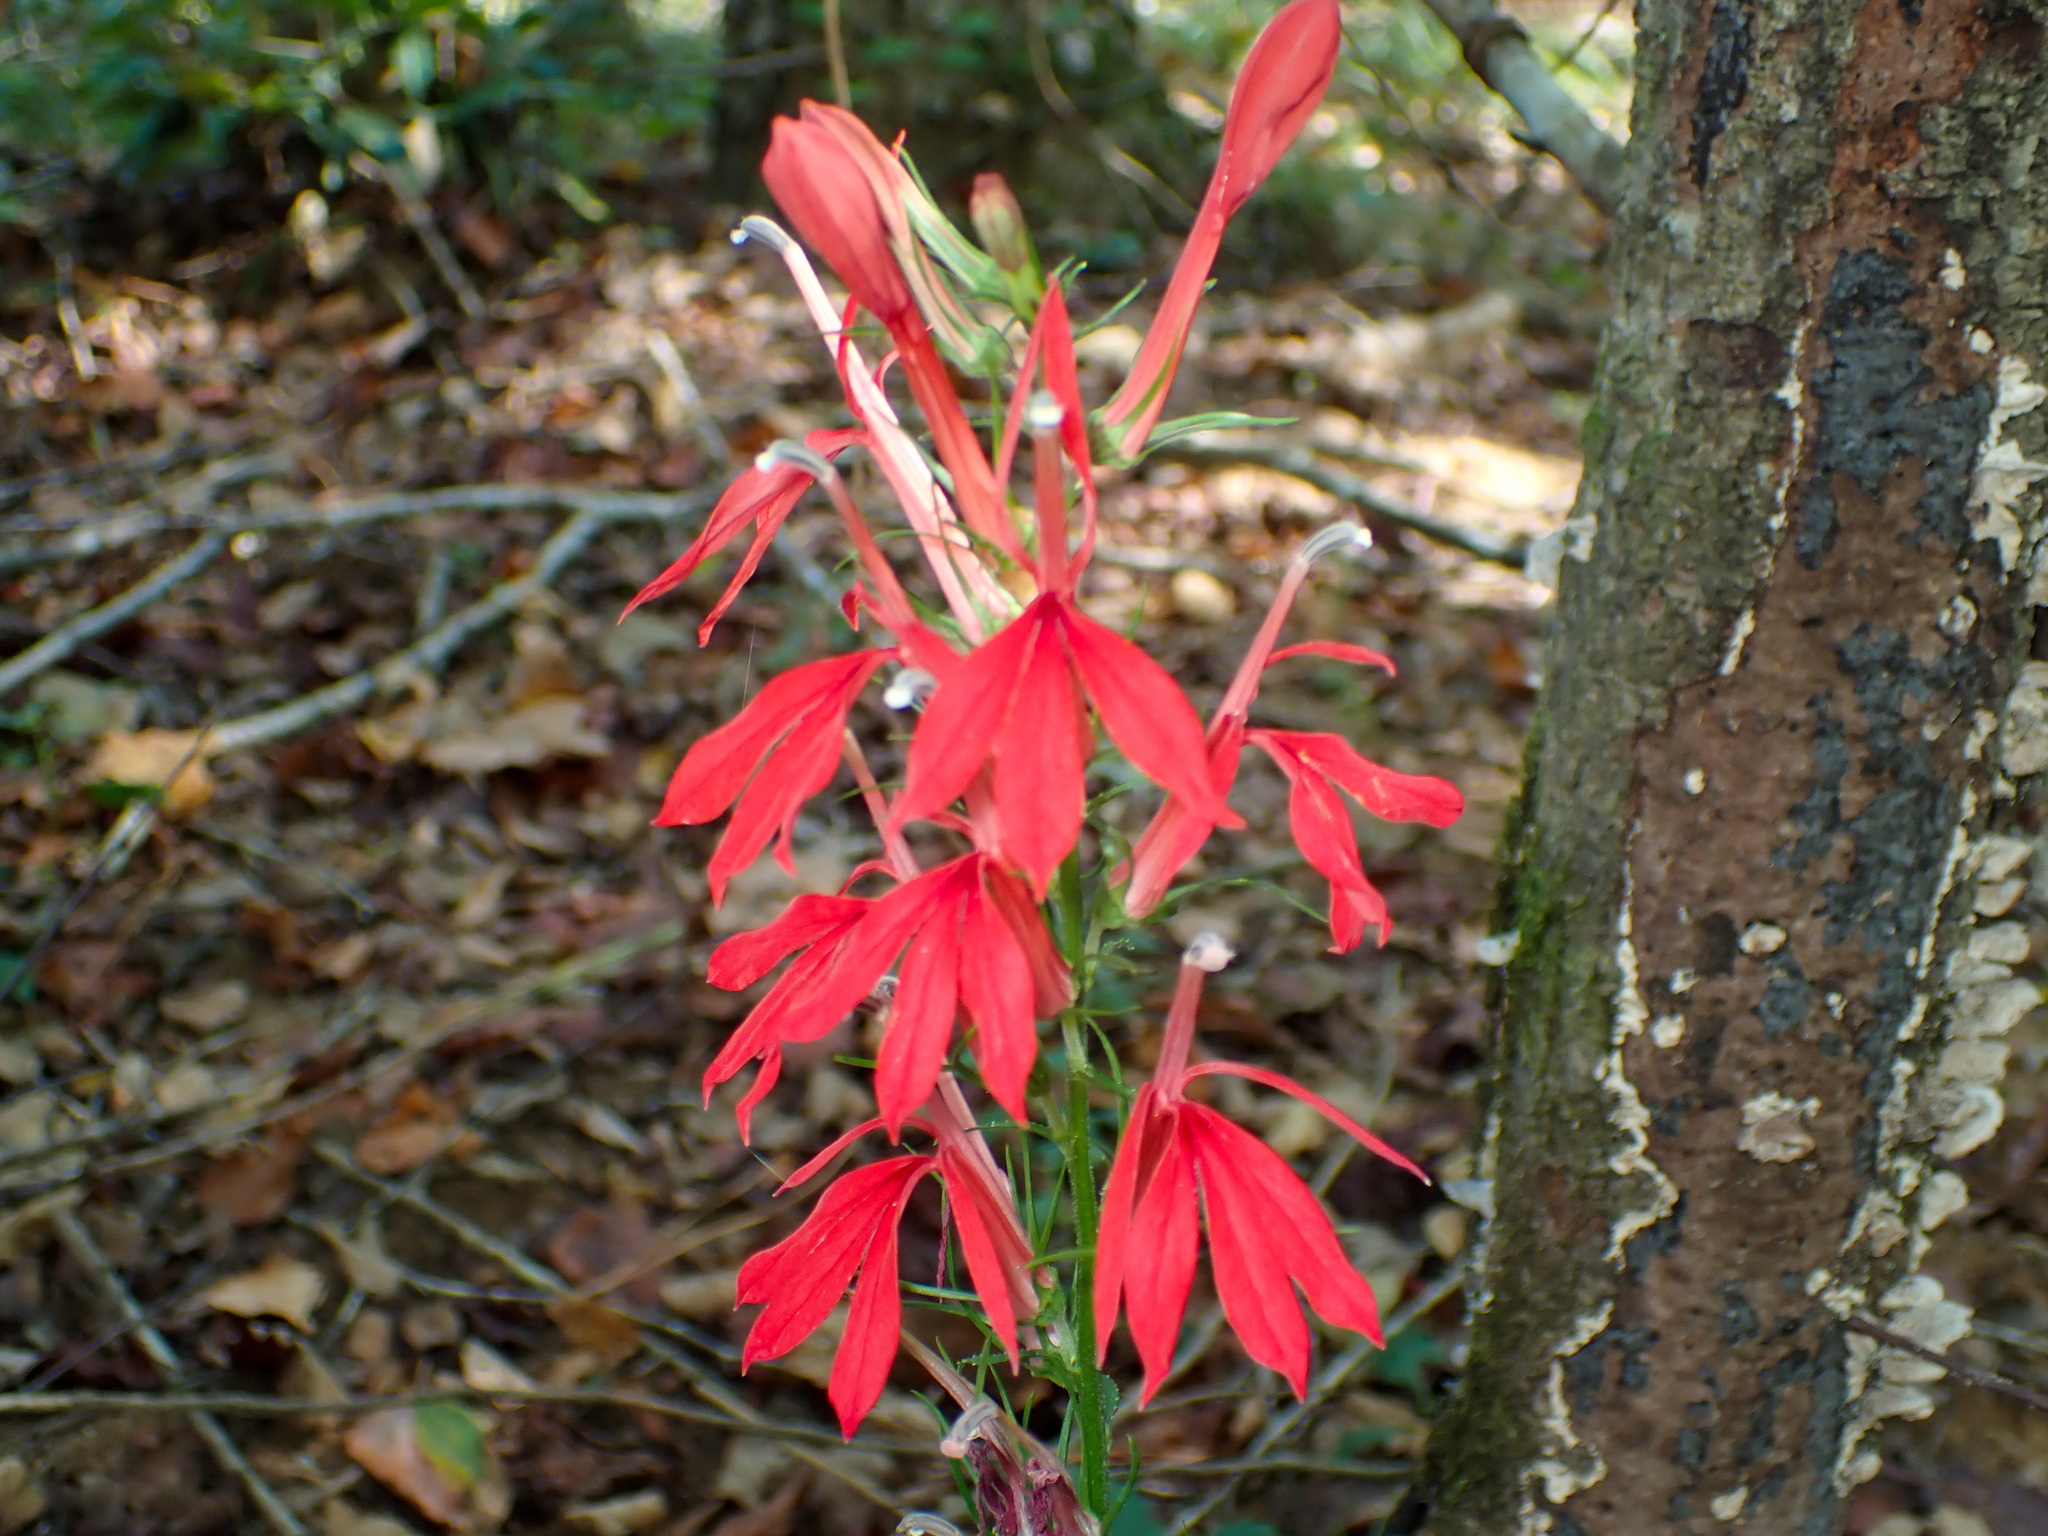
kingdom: Plantae
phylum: Tracheophyta
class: Magnoliopsida
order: Asterales
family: Campanulaceae
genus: Lobelia
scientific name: Lobelia cardinalis
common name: Cardinal flower
